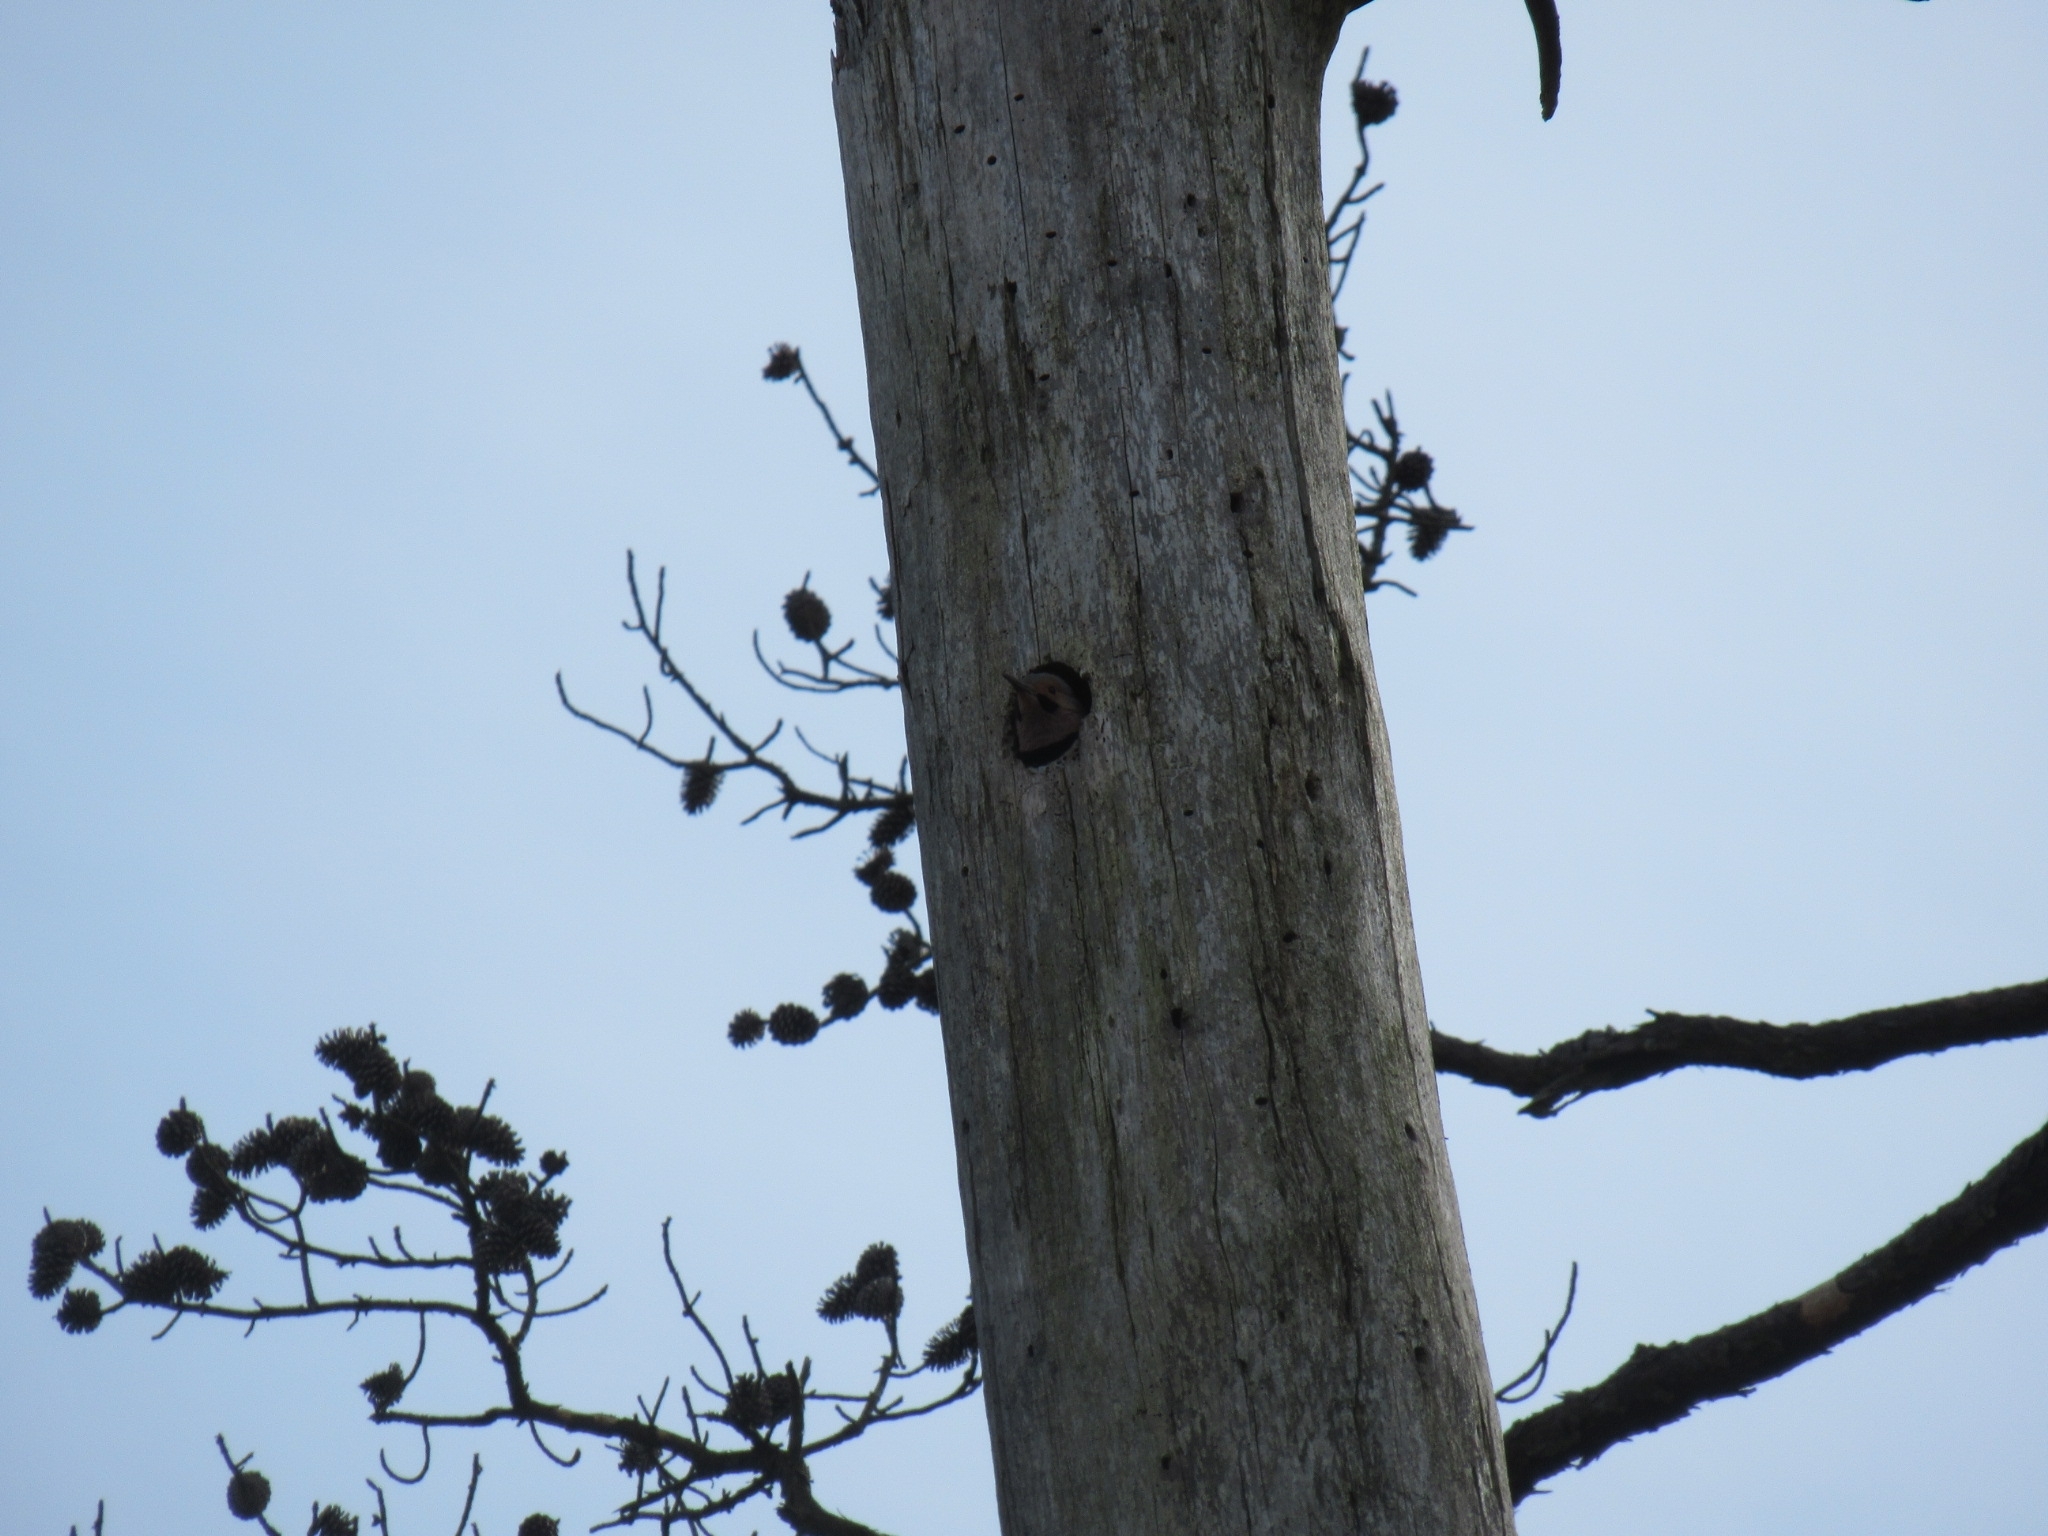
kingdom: Animalia
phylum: Chordata
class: Aves
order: Piciformes
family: Picidae
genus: Colaptes
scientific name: Colaptes auratus
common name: Northern flicker
